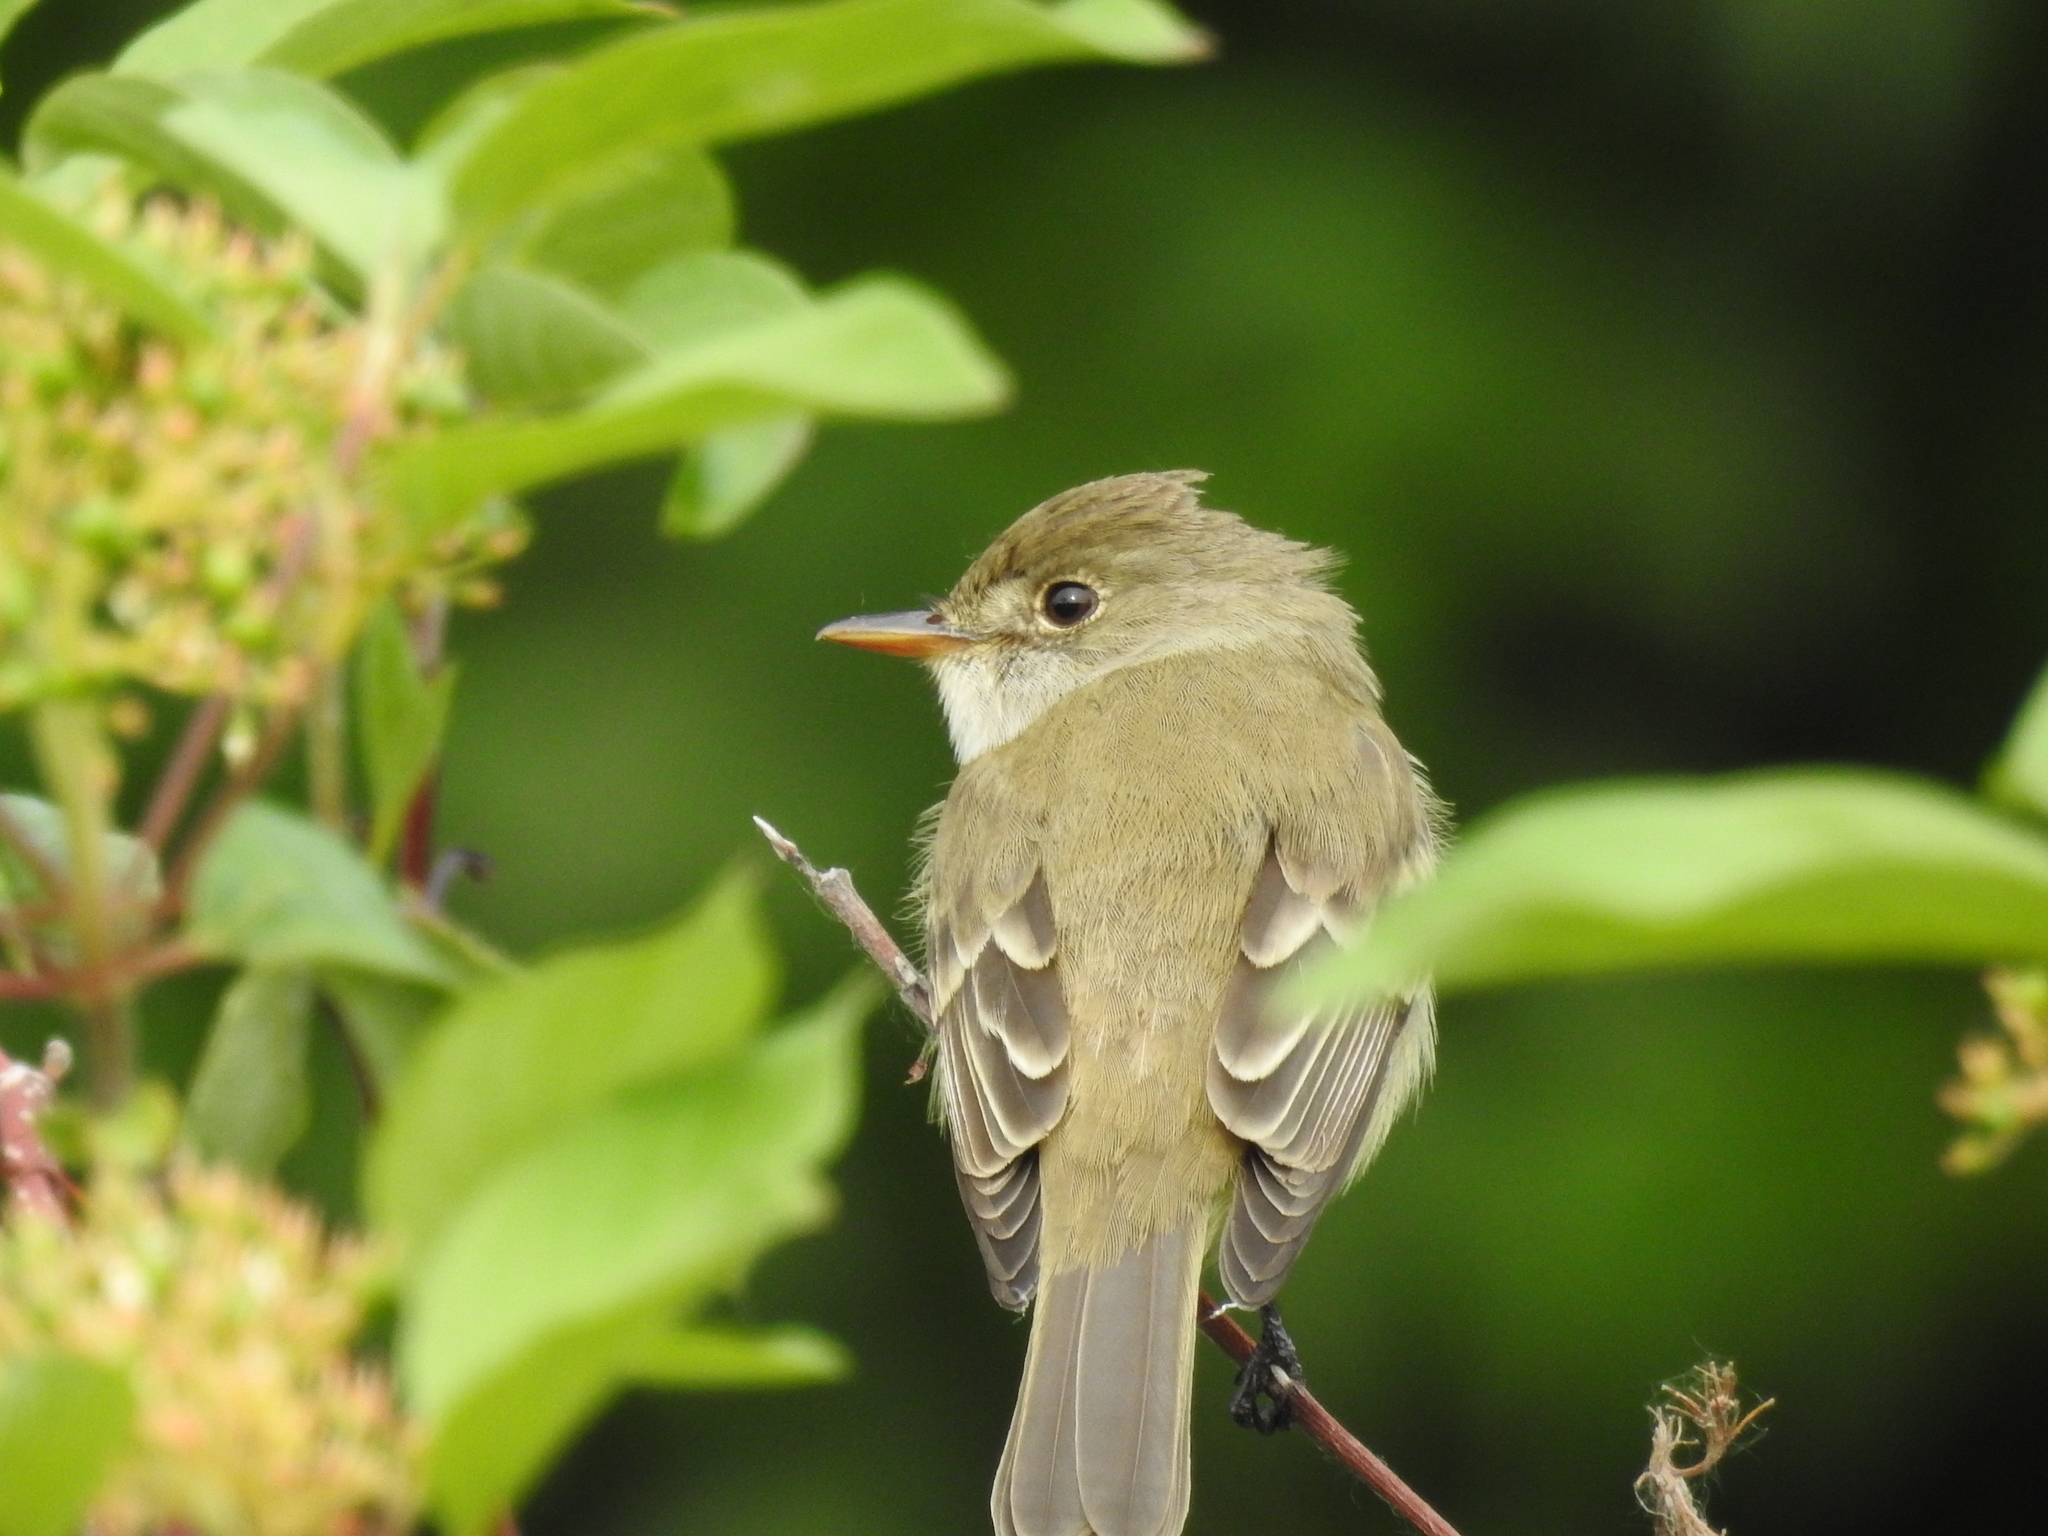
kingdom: Animalia
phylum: Chordata
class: Aves
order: Passeriformes
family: Tyrannidae
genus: Empidonax
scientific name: Empidonax traillii
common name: Willow flycatcher
